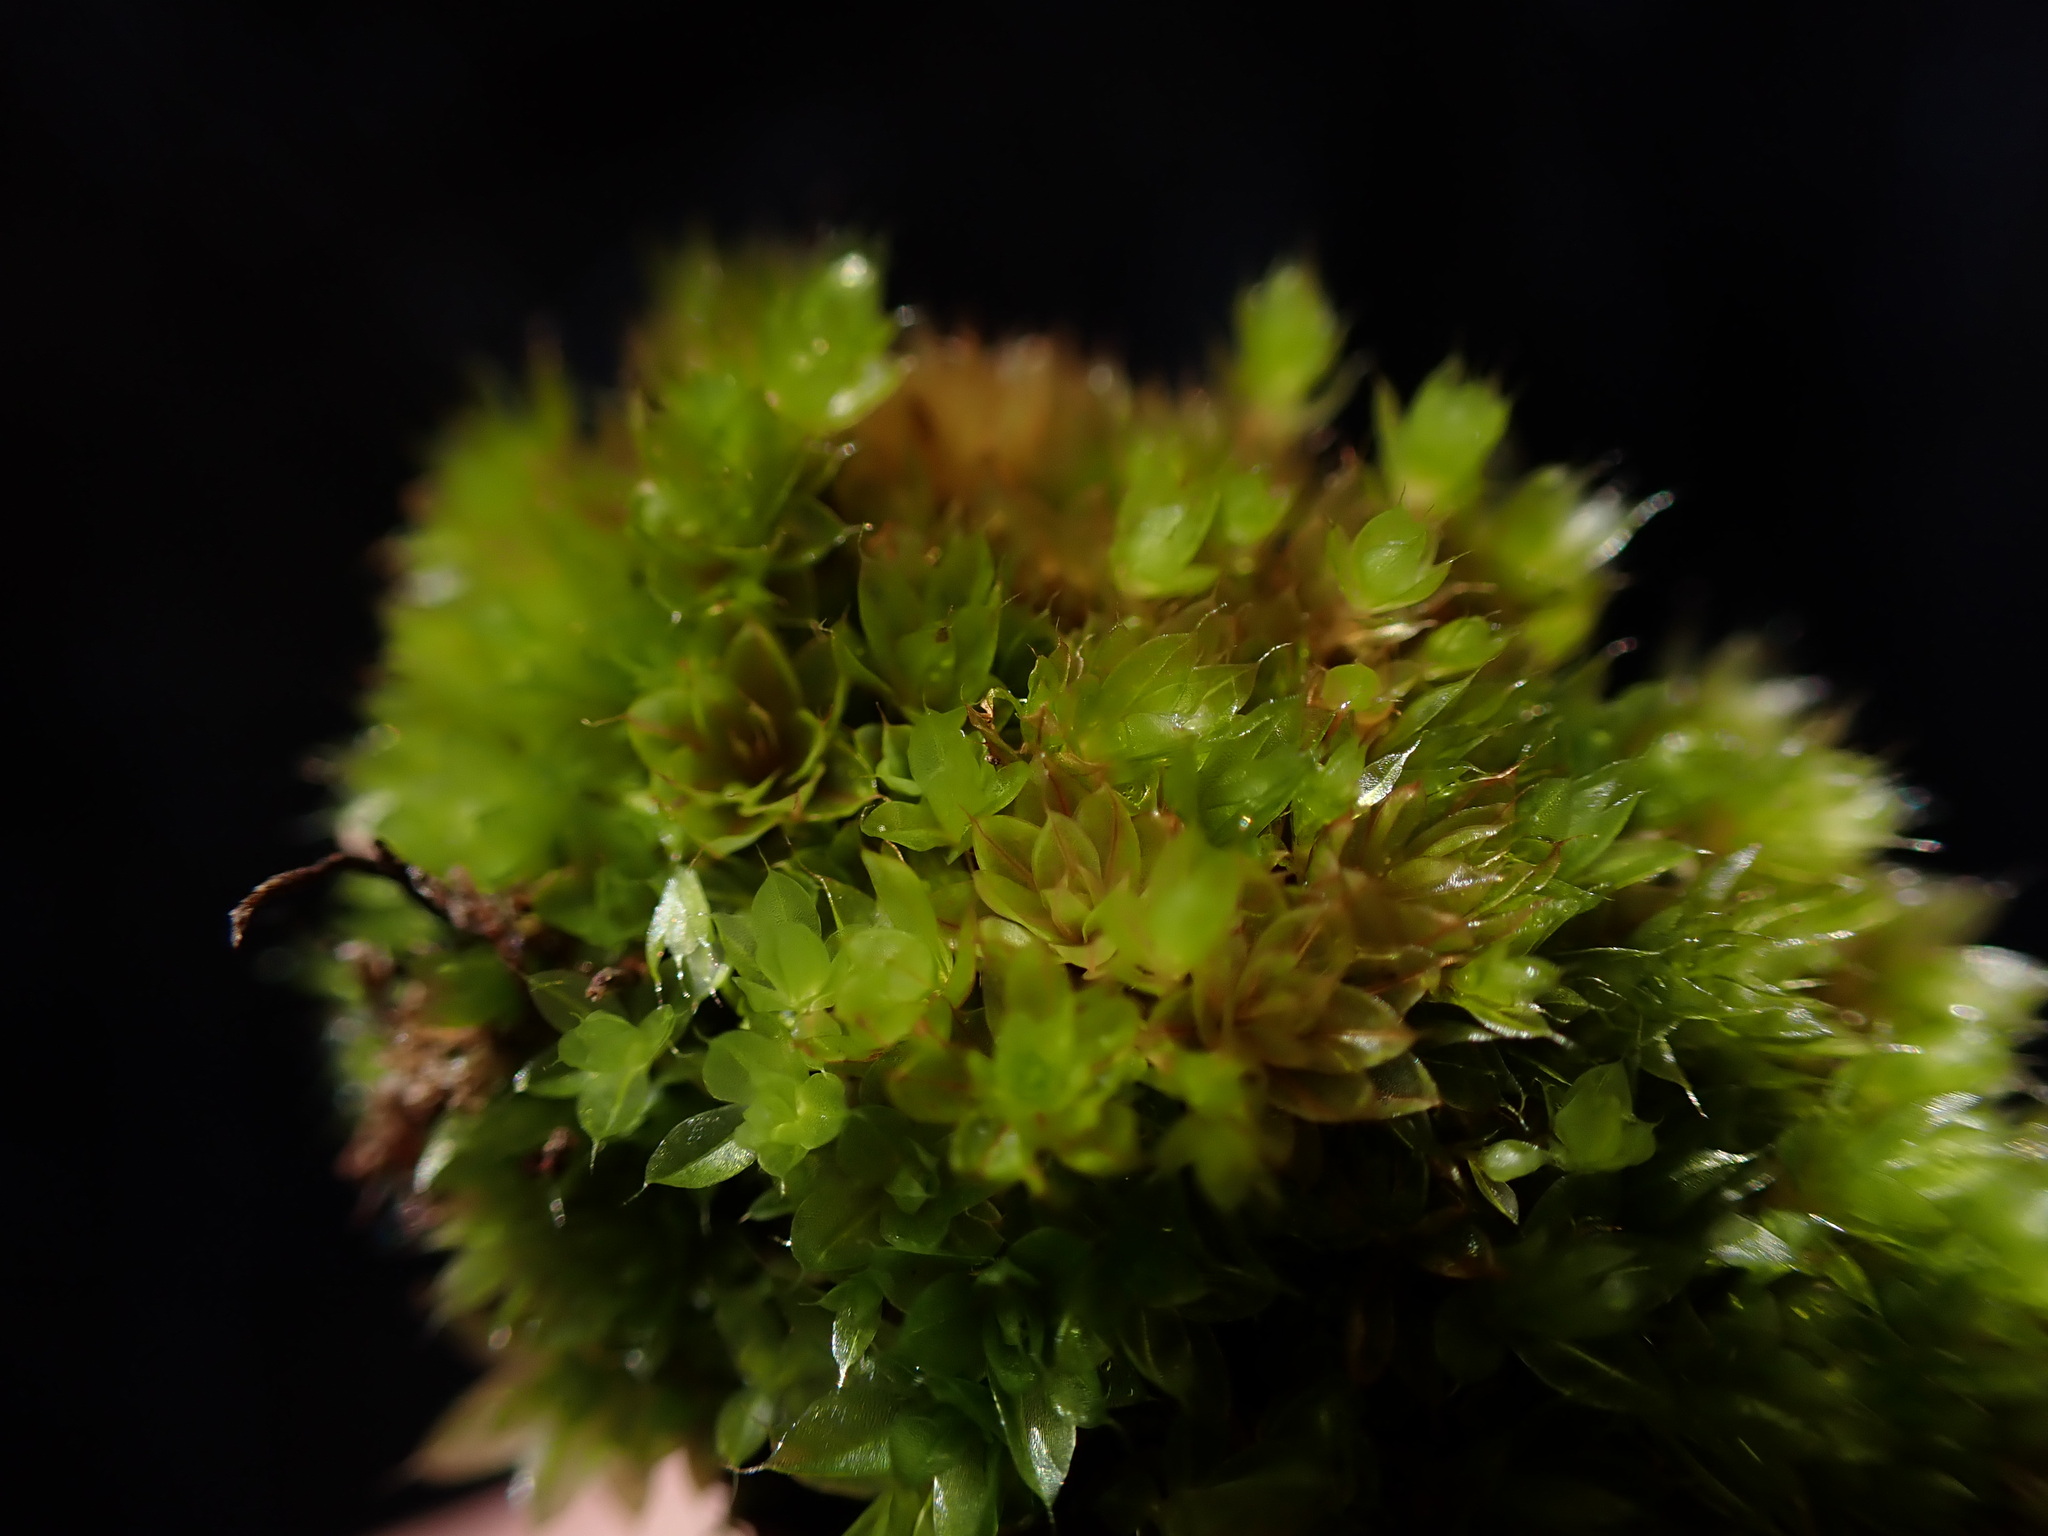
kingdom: Plantae
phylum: Bryophyta
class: Bryopsida
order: Bryales
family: Bryaceae
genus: Rosulabryum
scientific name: Rosulabryum capillare
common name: Capillary thread-moss
